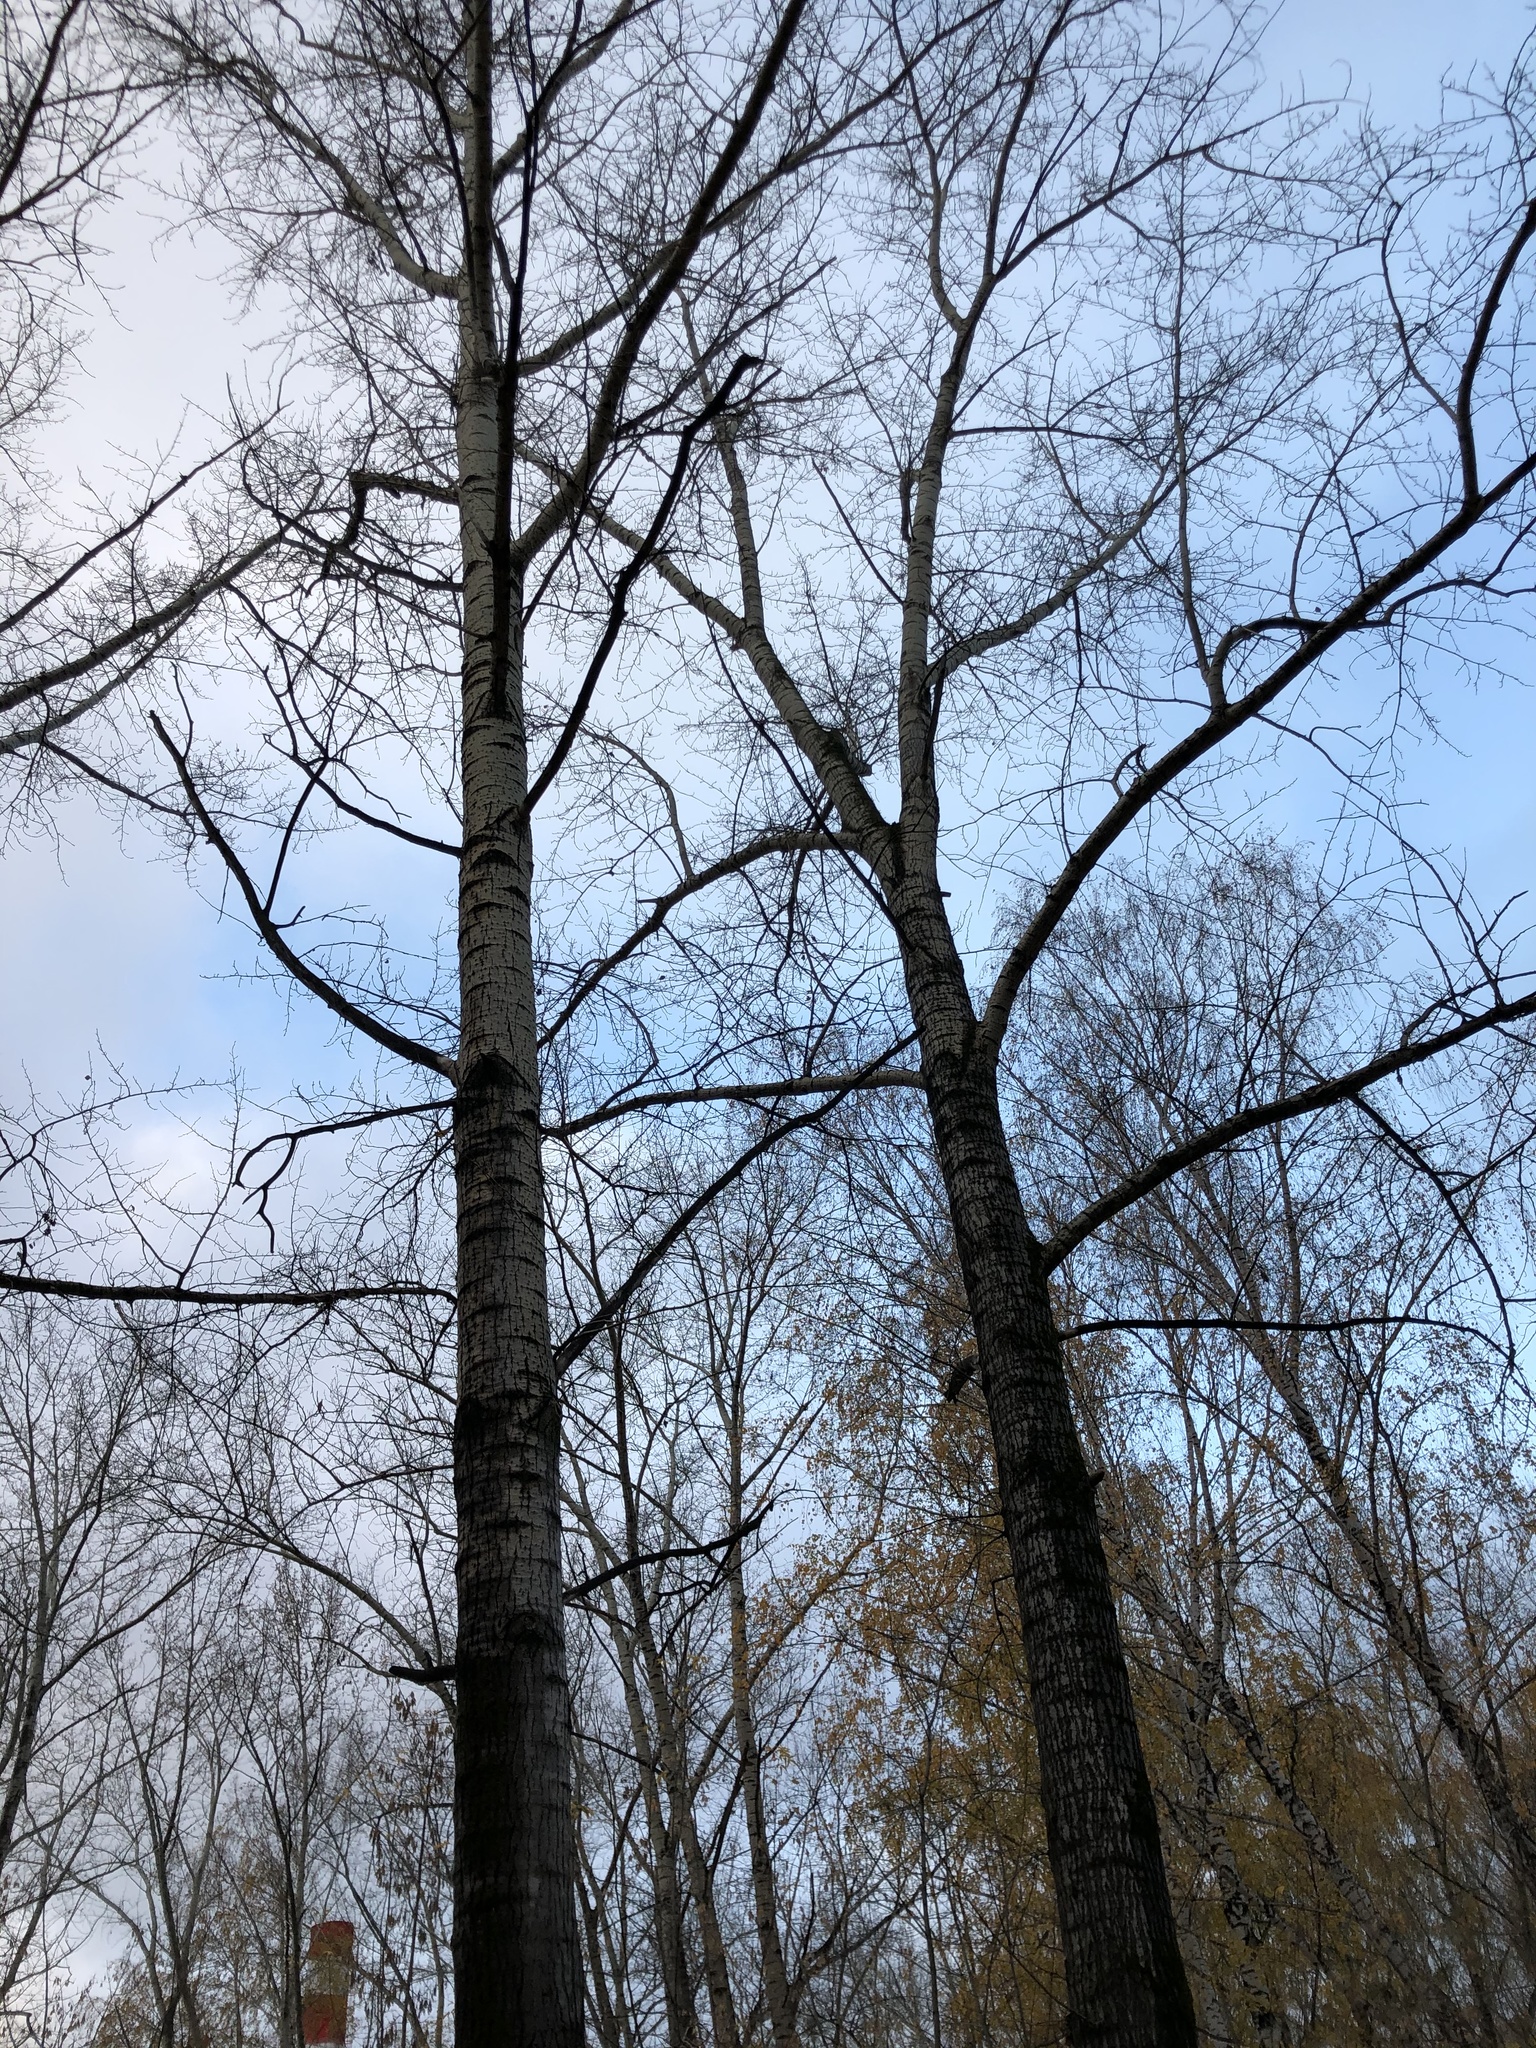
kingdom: Plantae
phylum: Tracheophyta
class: Magnoliopsida
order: Malpighiales
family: Salicaceae
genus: Populus
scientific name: Populus tremula
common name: European aspen
